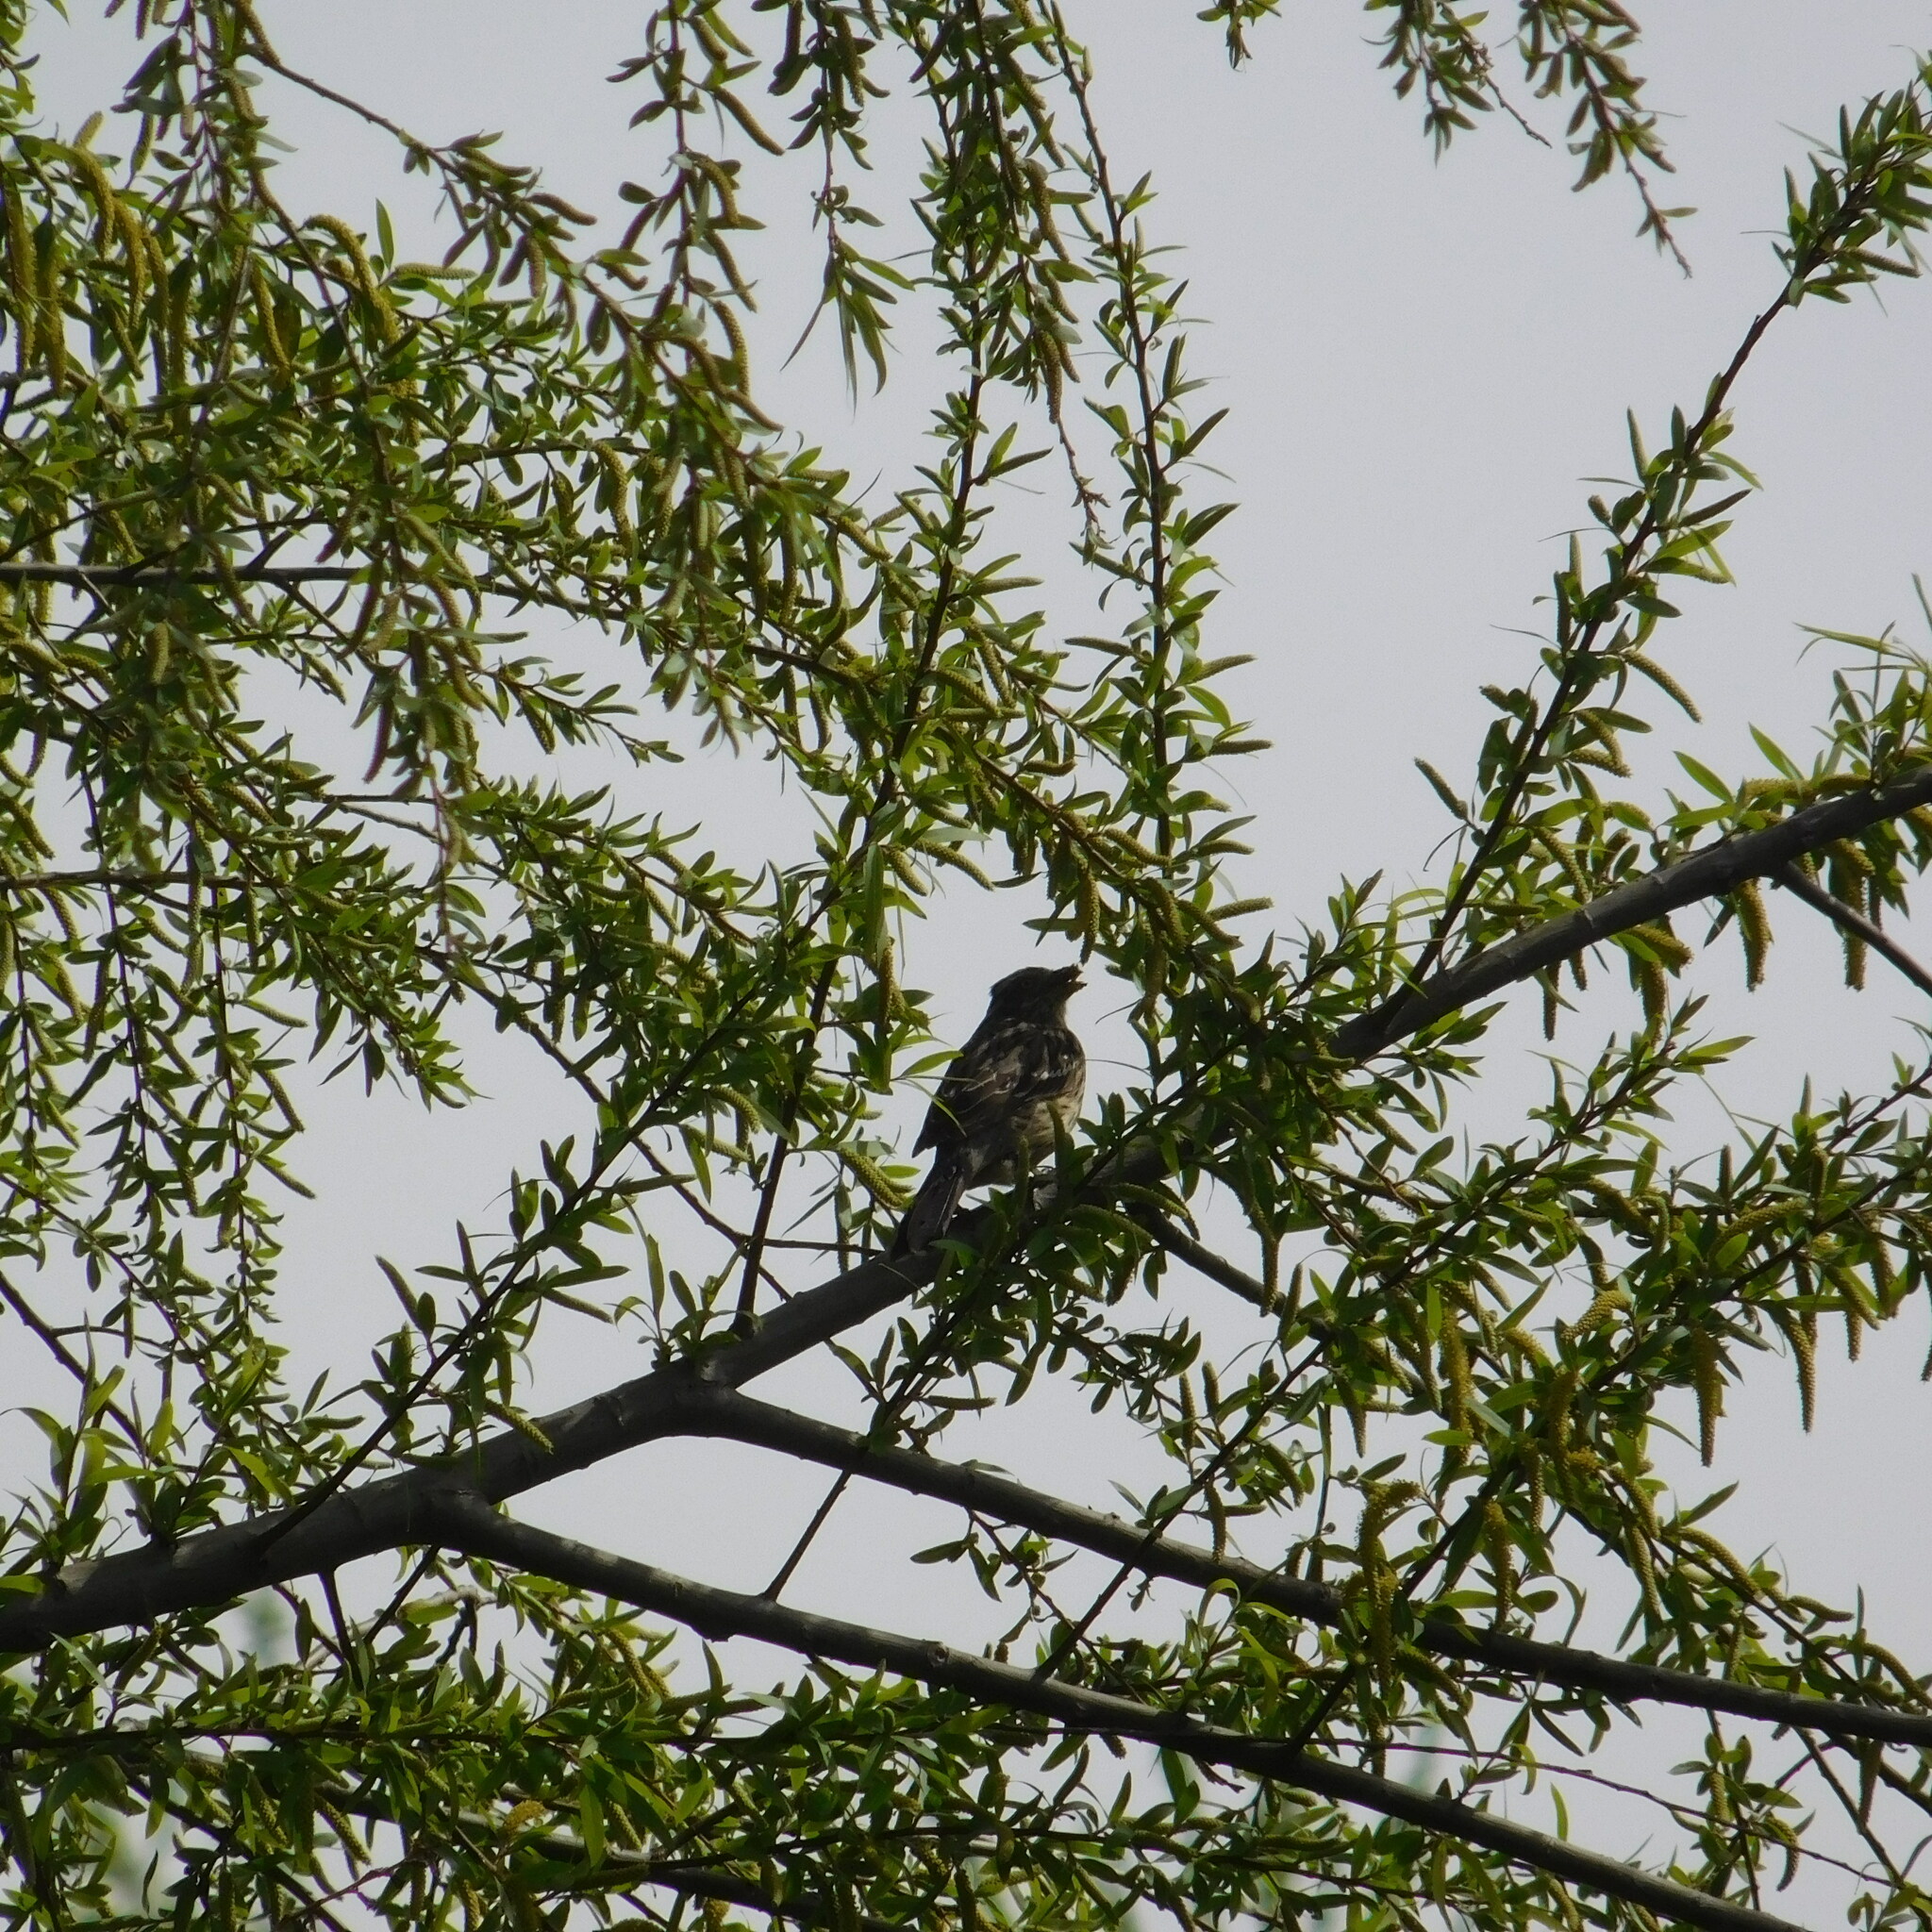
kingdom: Animalia
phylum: Chordata
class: Aves
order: Passeriformes
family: Cotingidae
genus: Phytotoma
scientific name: Phytotoma rutila
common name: White-tipped plantcutter
